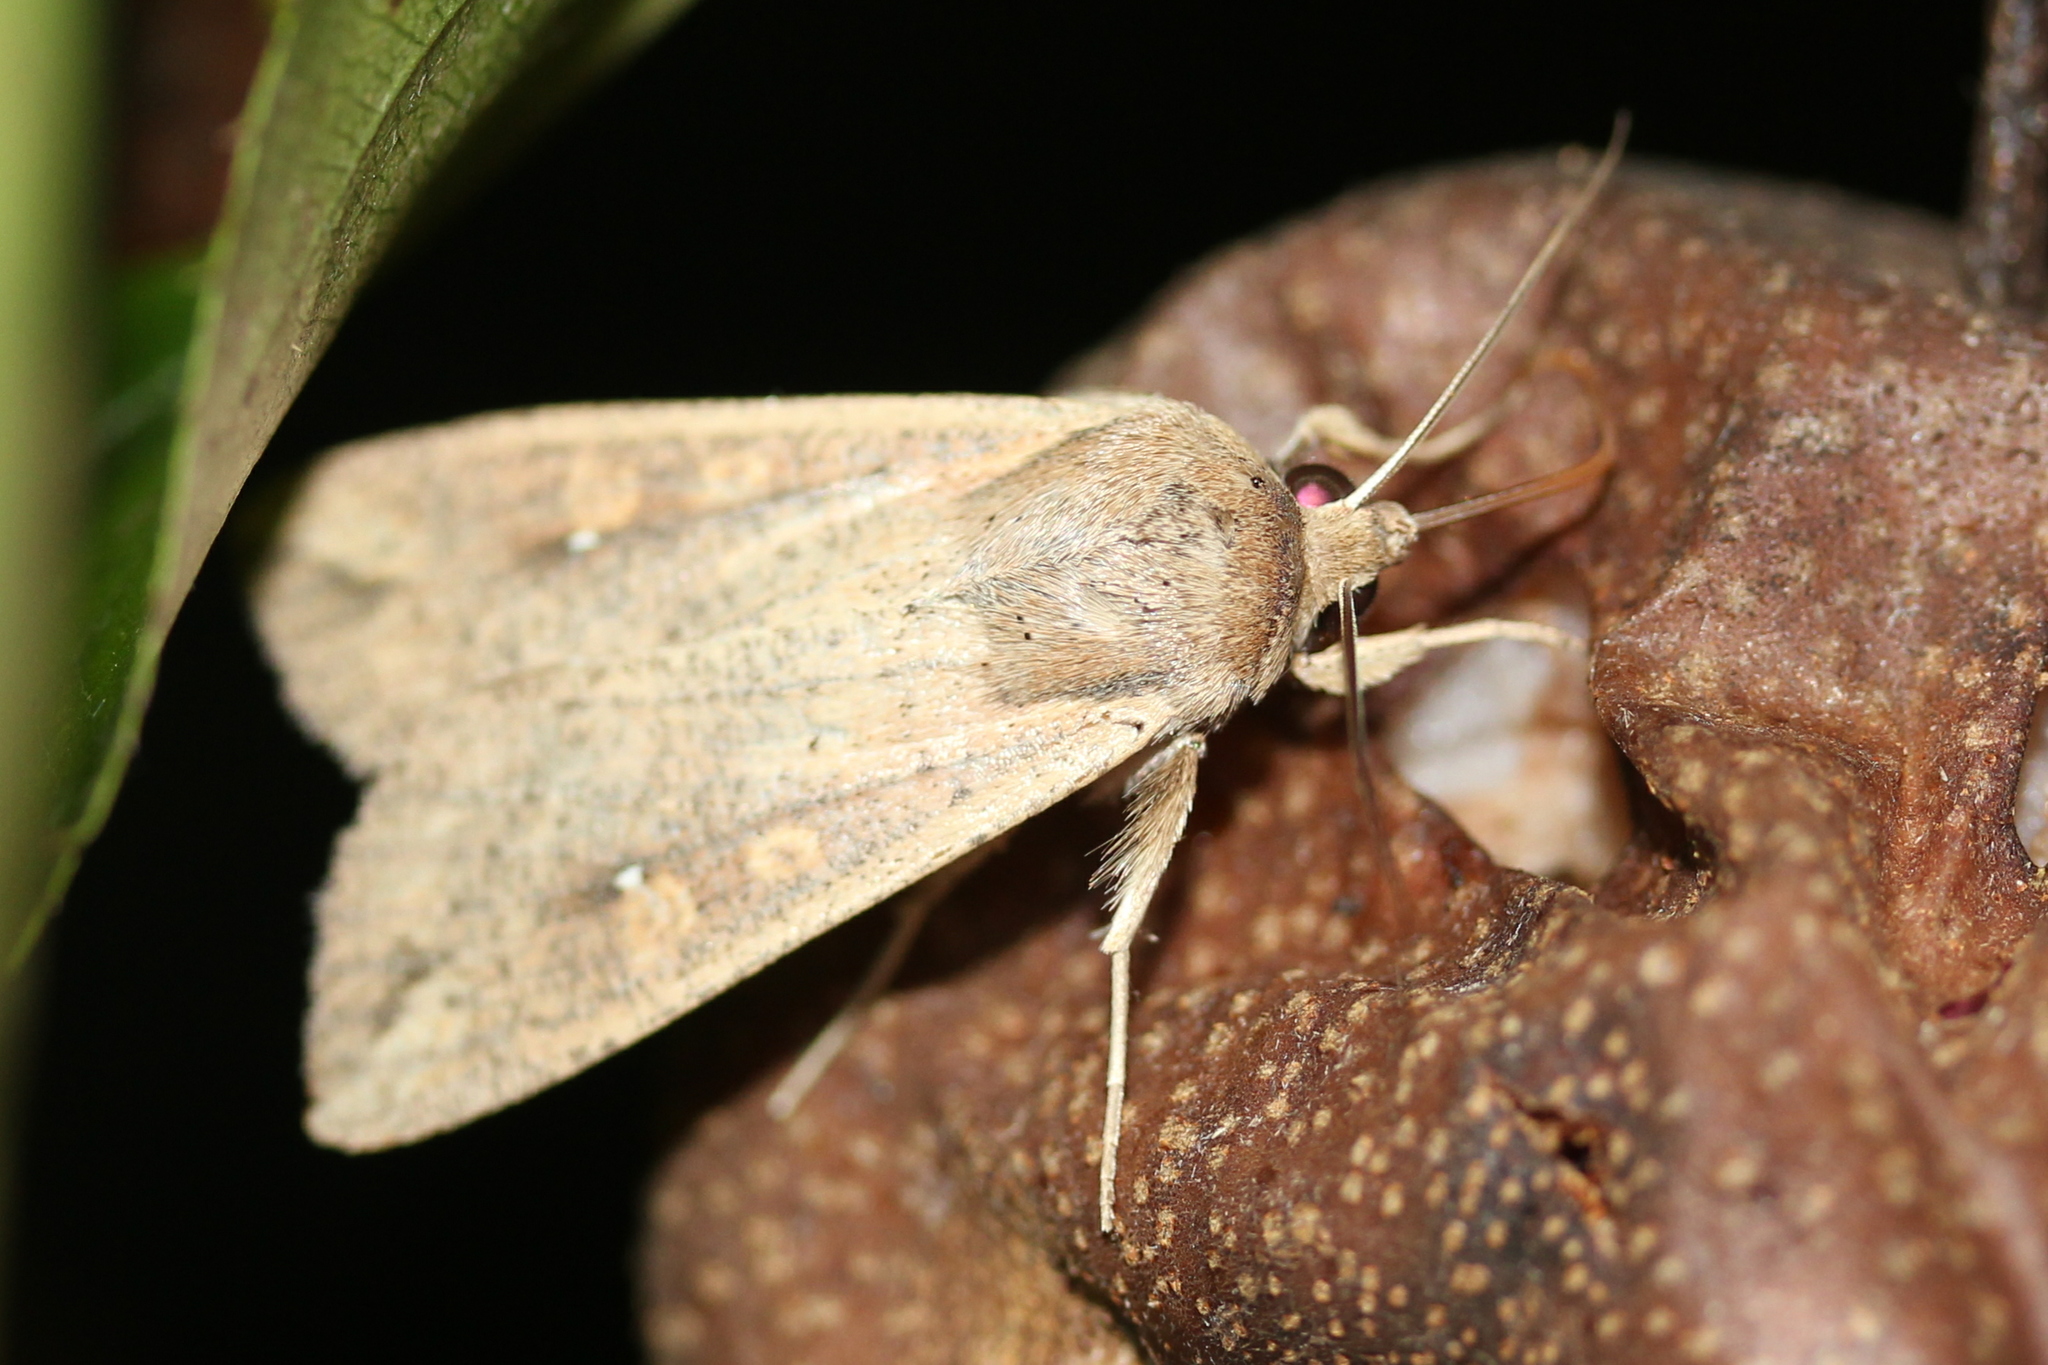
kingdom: Animalia
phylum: Arthropoda
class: Insecta
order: Lepidoptera
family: Noctuidae
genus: Mythimna
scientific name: Mythimna unipuncta
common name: White-speck
